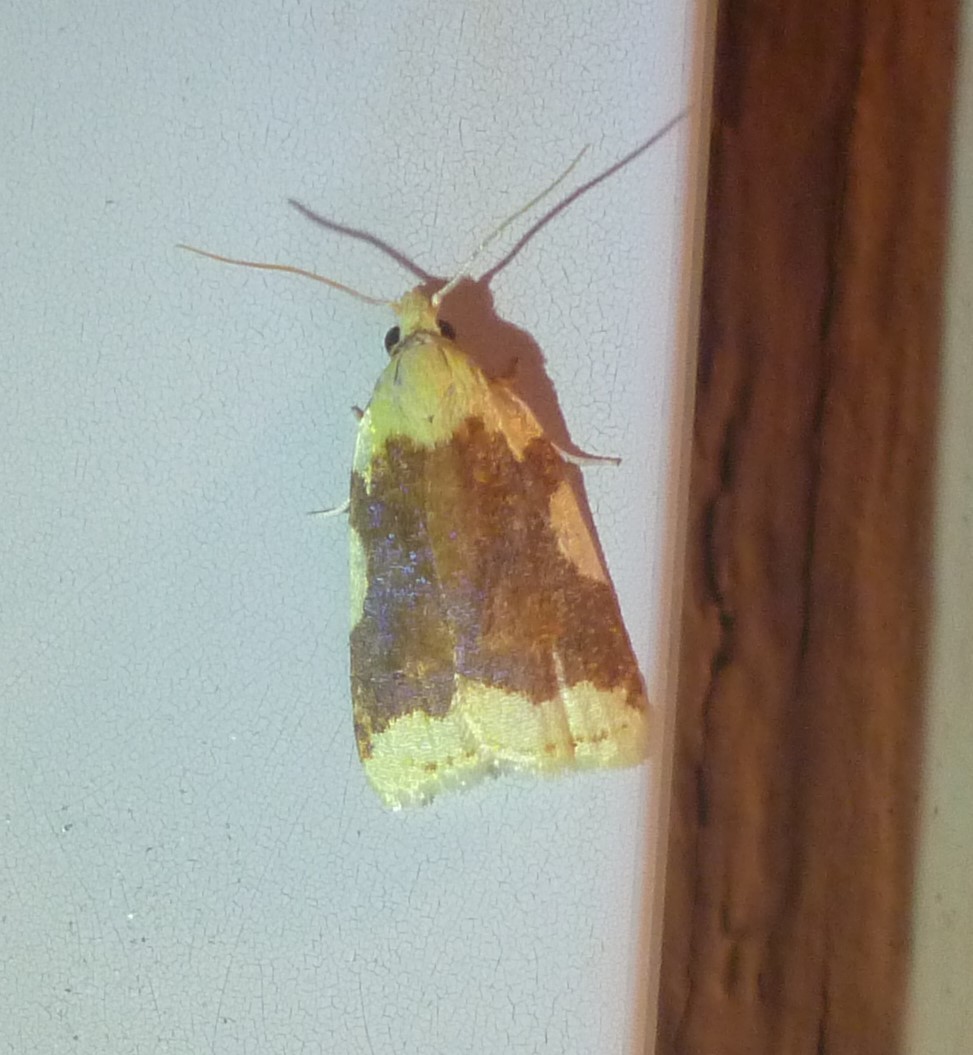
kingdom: Animalia
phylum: Arthropoda
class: Insecta
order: Lepidoptera
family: Tortricidae
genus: Cenopis
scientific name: Cenopis niveana
